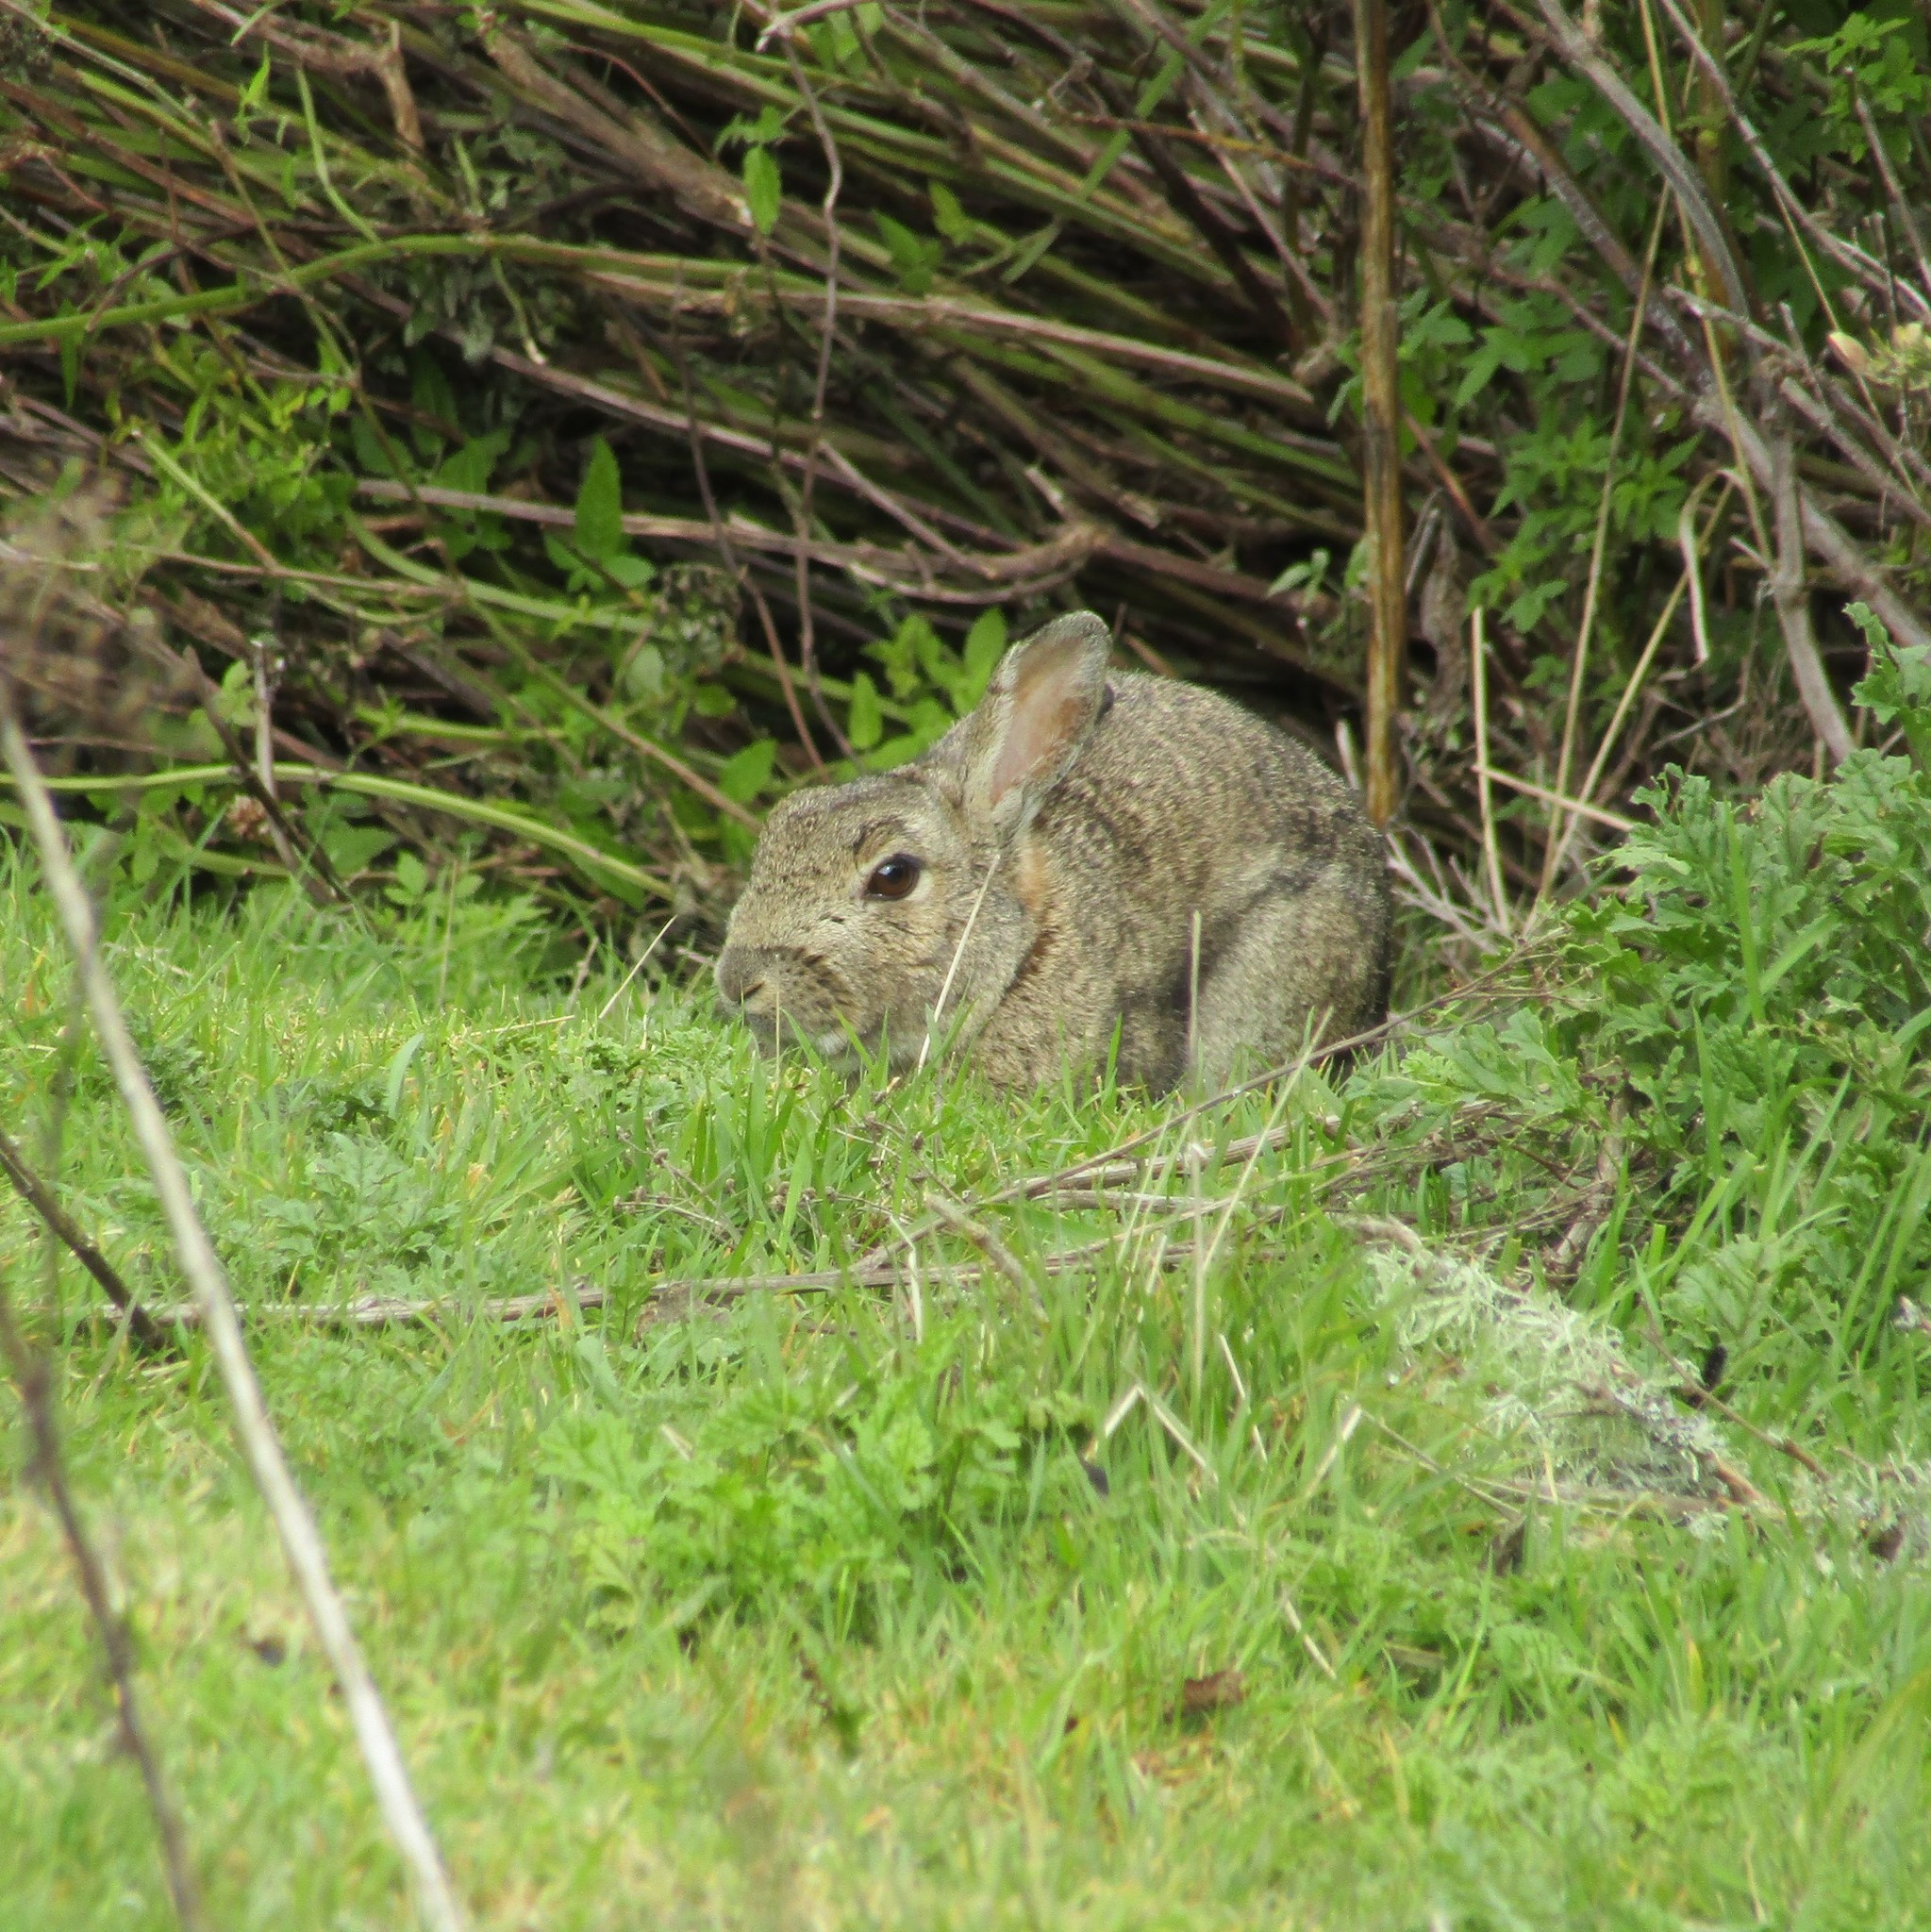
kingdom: Animalia
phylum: Chordata
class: Mammalia
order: Lagomorpha
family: Leporidae
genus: Oryctolagus
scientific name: Oryctolagus cuniculus
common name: European rabbit
